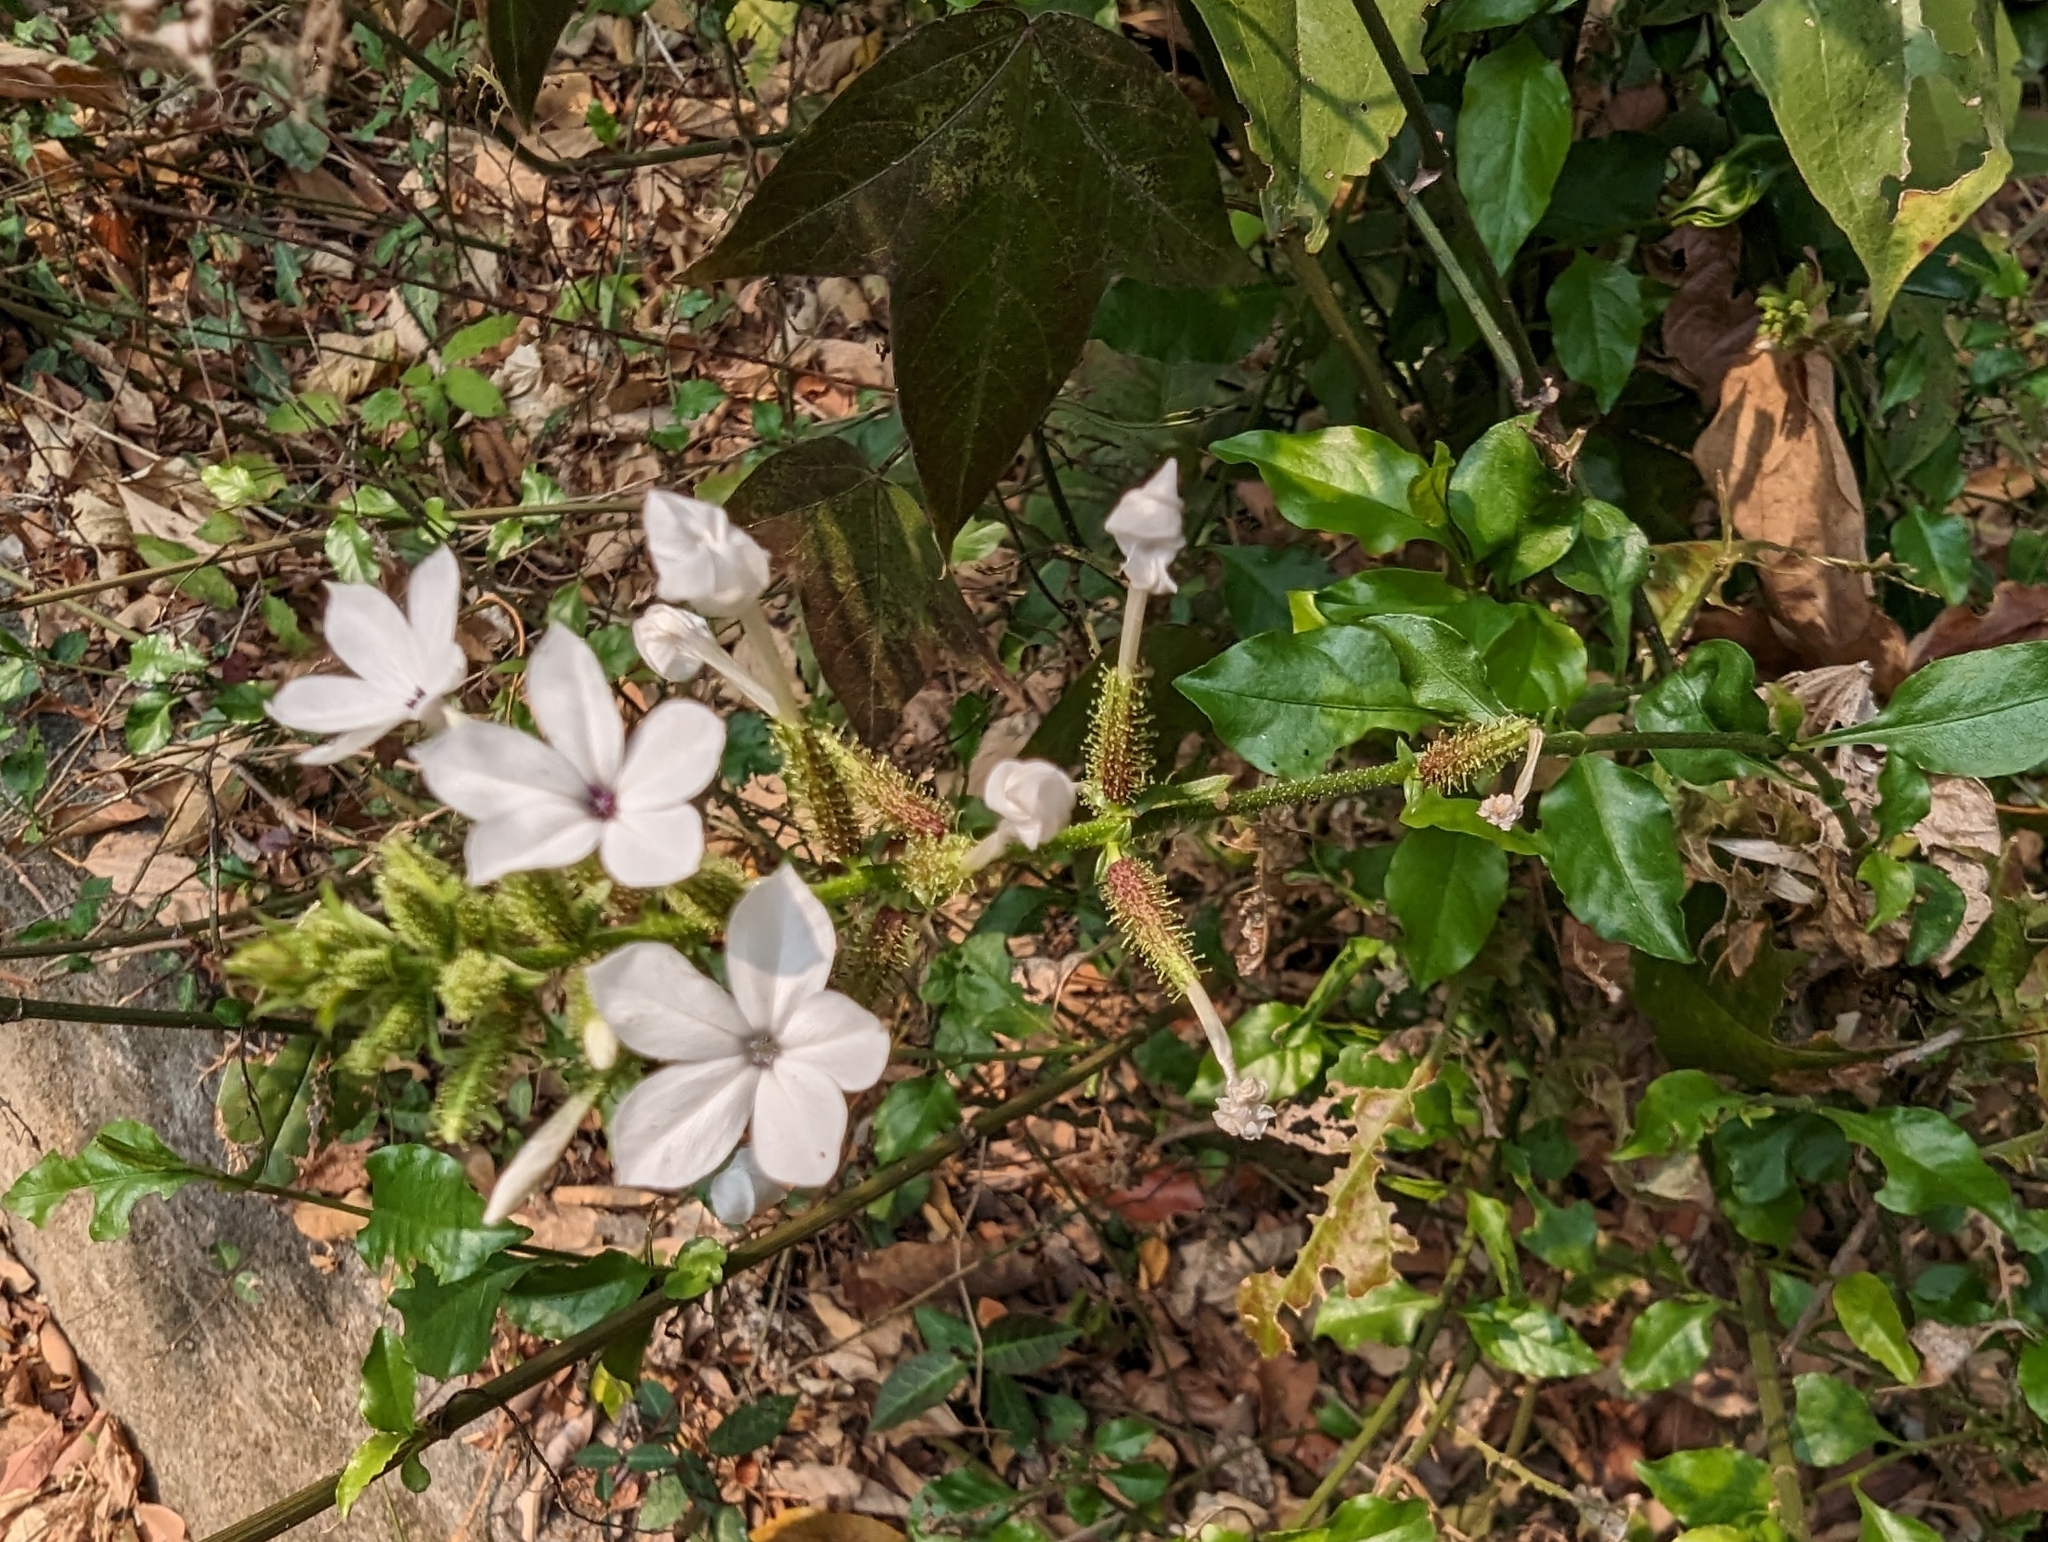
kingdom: Plantae
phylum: Tracheophyta
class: Magnoliopsida
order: Caryophyllales
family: Plumbaginaceae
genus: Plumbago
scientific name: Plumbago zeylanica
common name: Doctorbush
